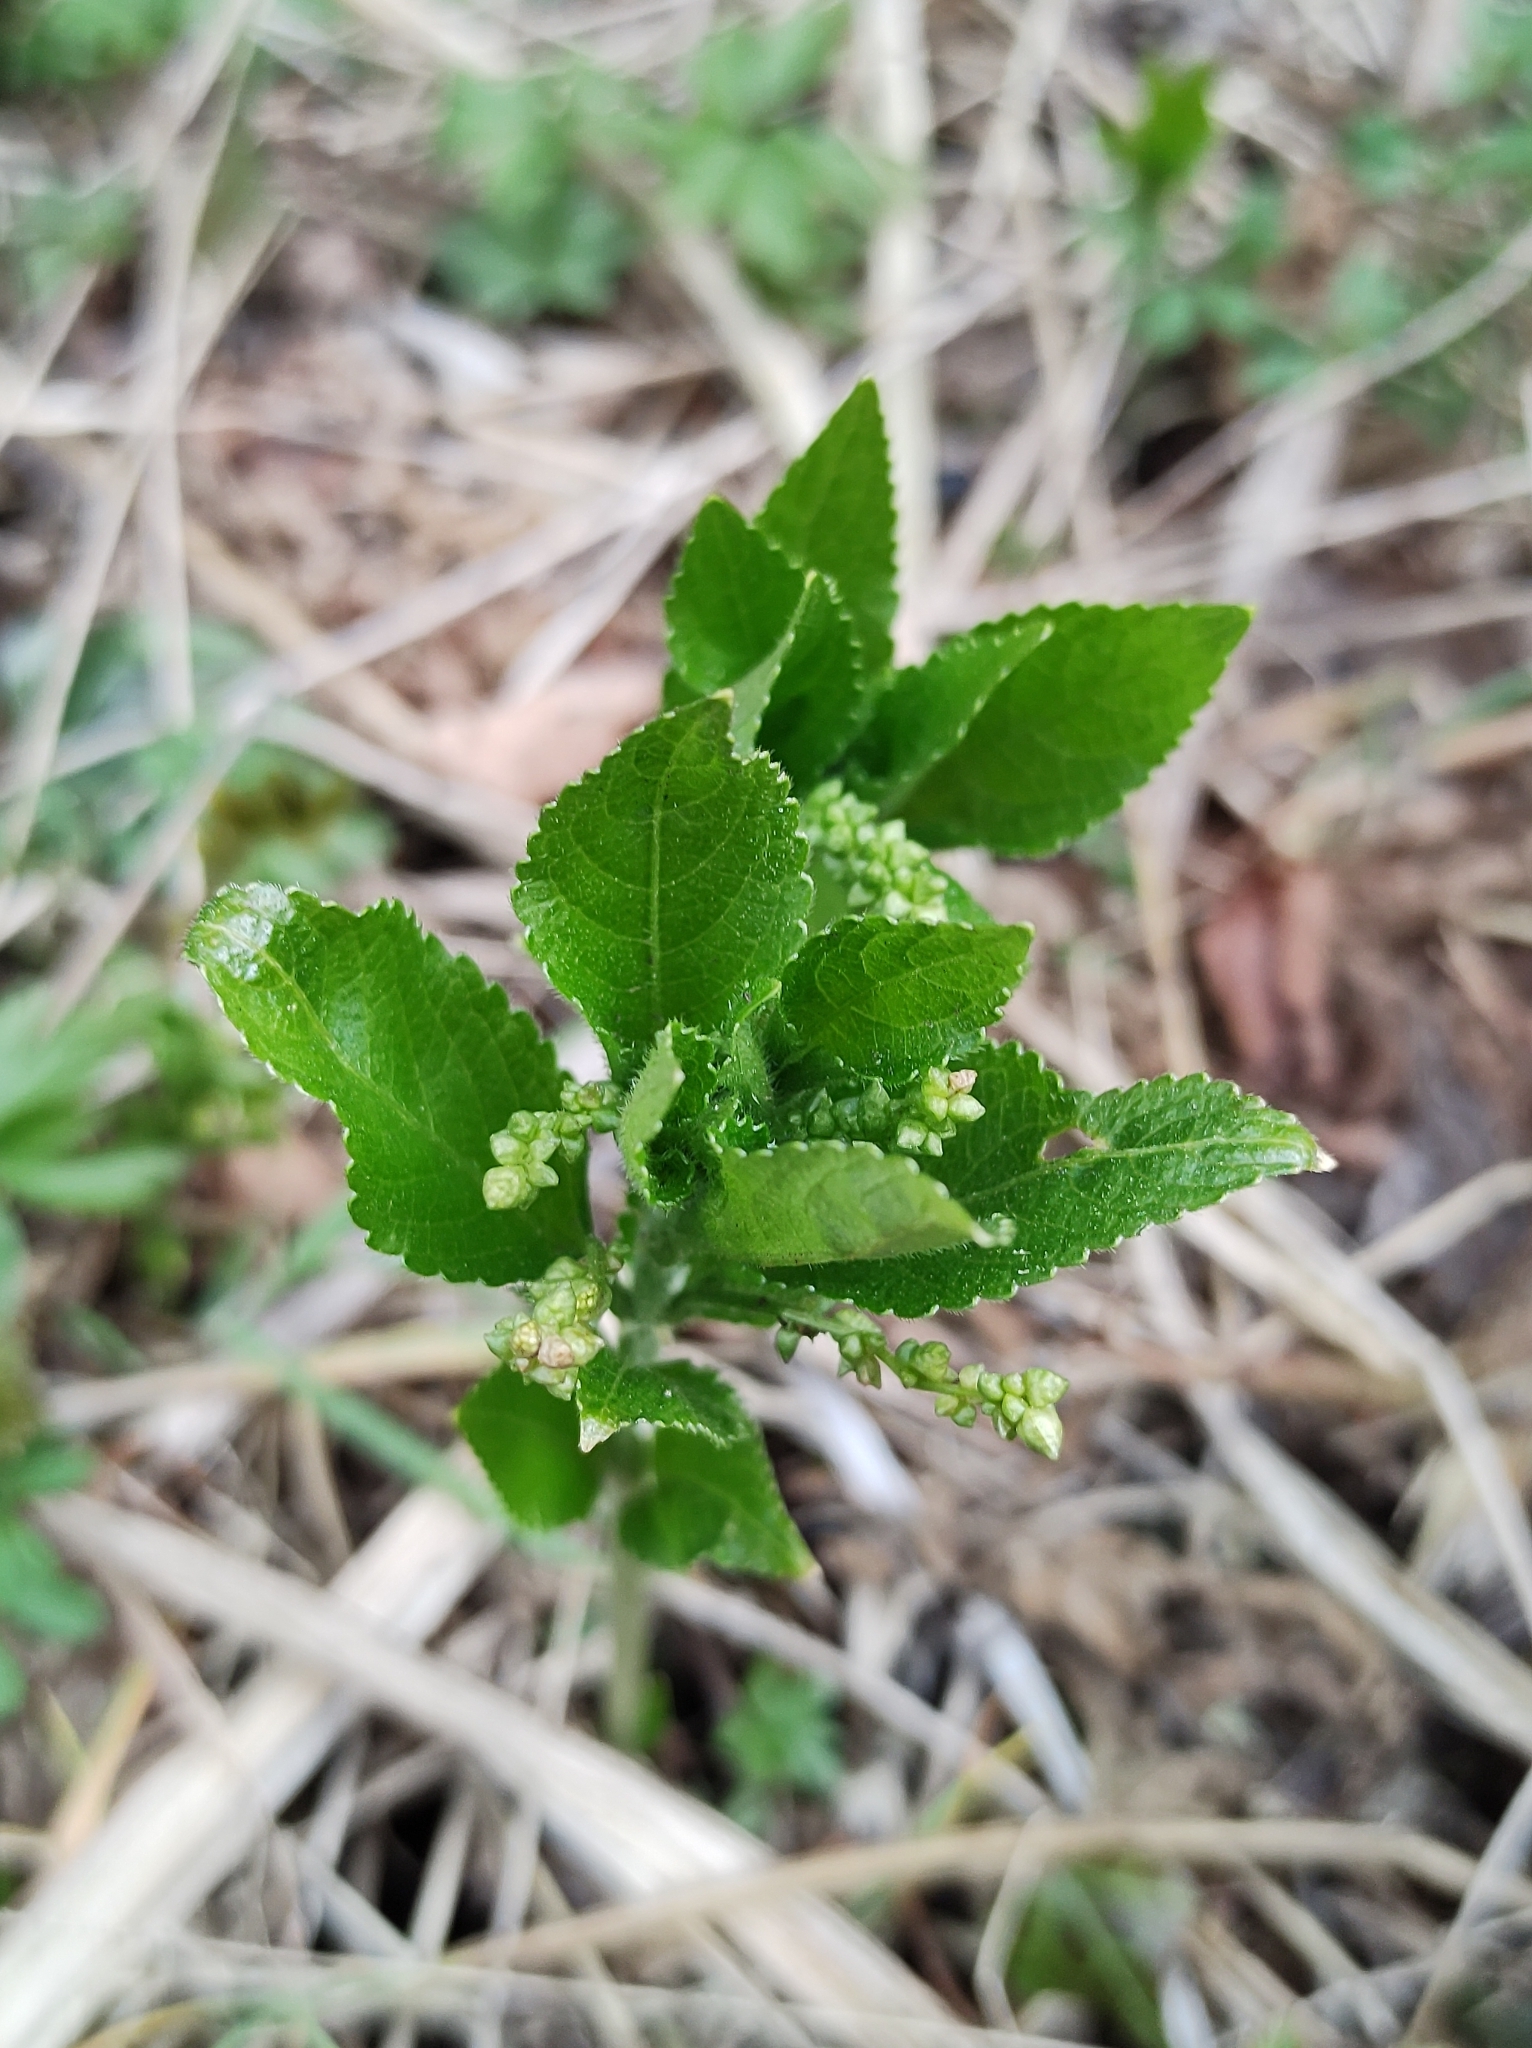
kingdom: Plantae
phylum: Tracheophyta
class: Magnoliopsida
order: Malpighiales
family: Euphorbiaceae
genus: Mercurialis
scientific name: Mercurialis perennis
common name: Dog mercury
